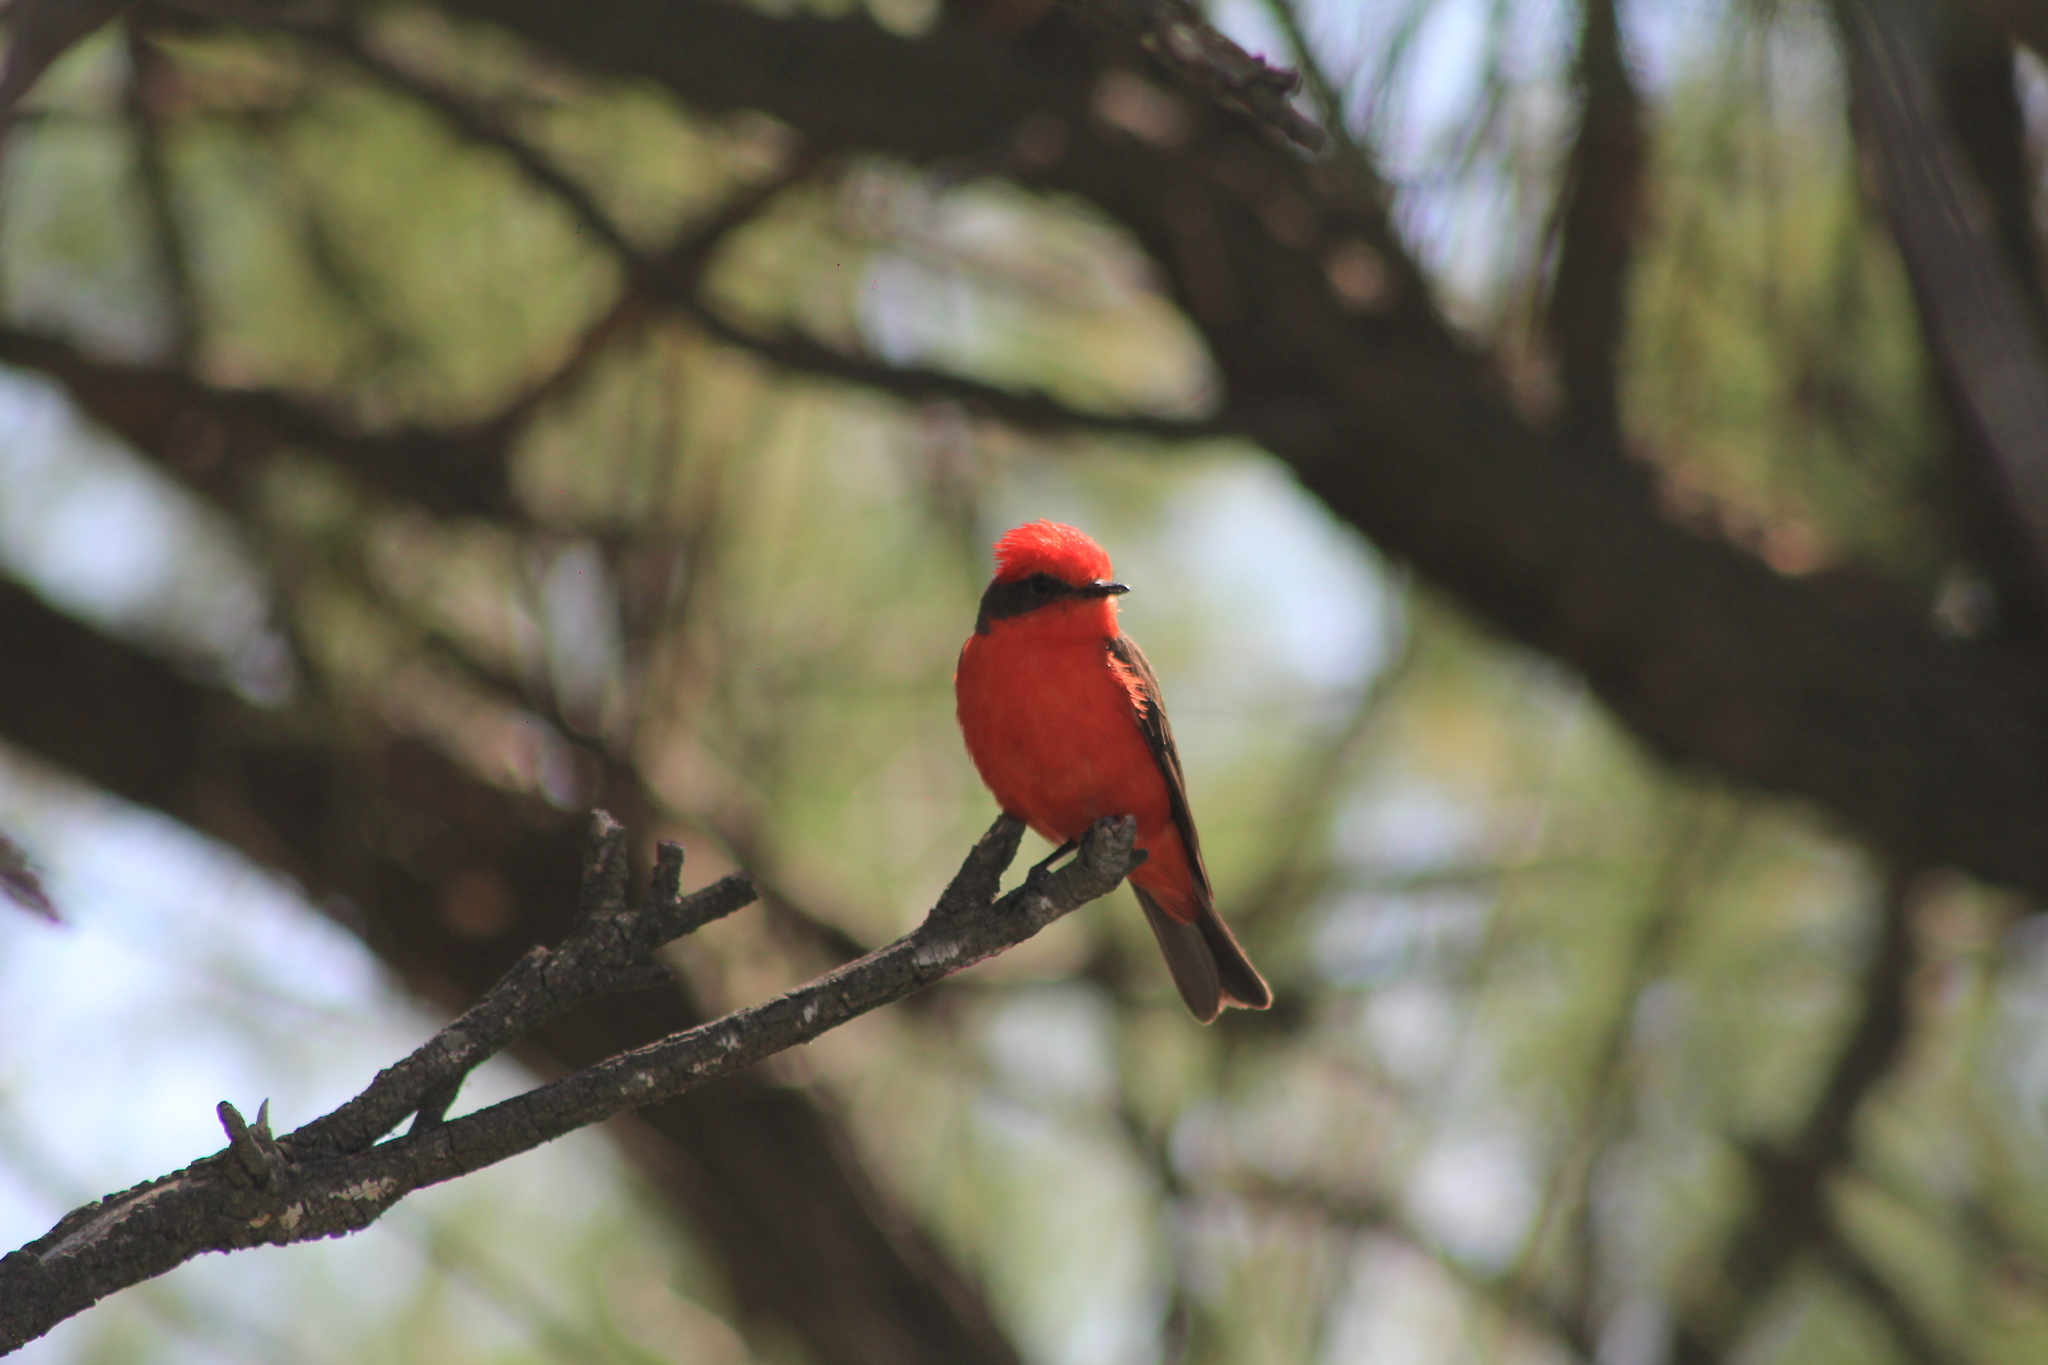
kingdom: Animalia
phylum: Chordata
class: Aves
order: Passeriformes
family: Tyrannidae
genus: Pyrocephalus
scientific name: Pyrocephalus rubinus
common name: Vermilion flycatcher
